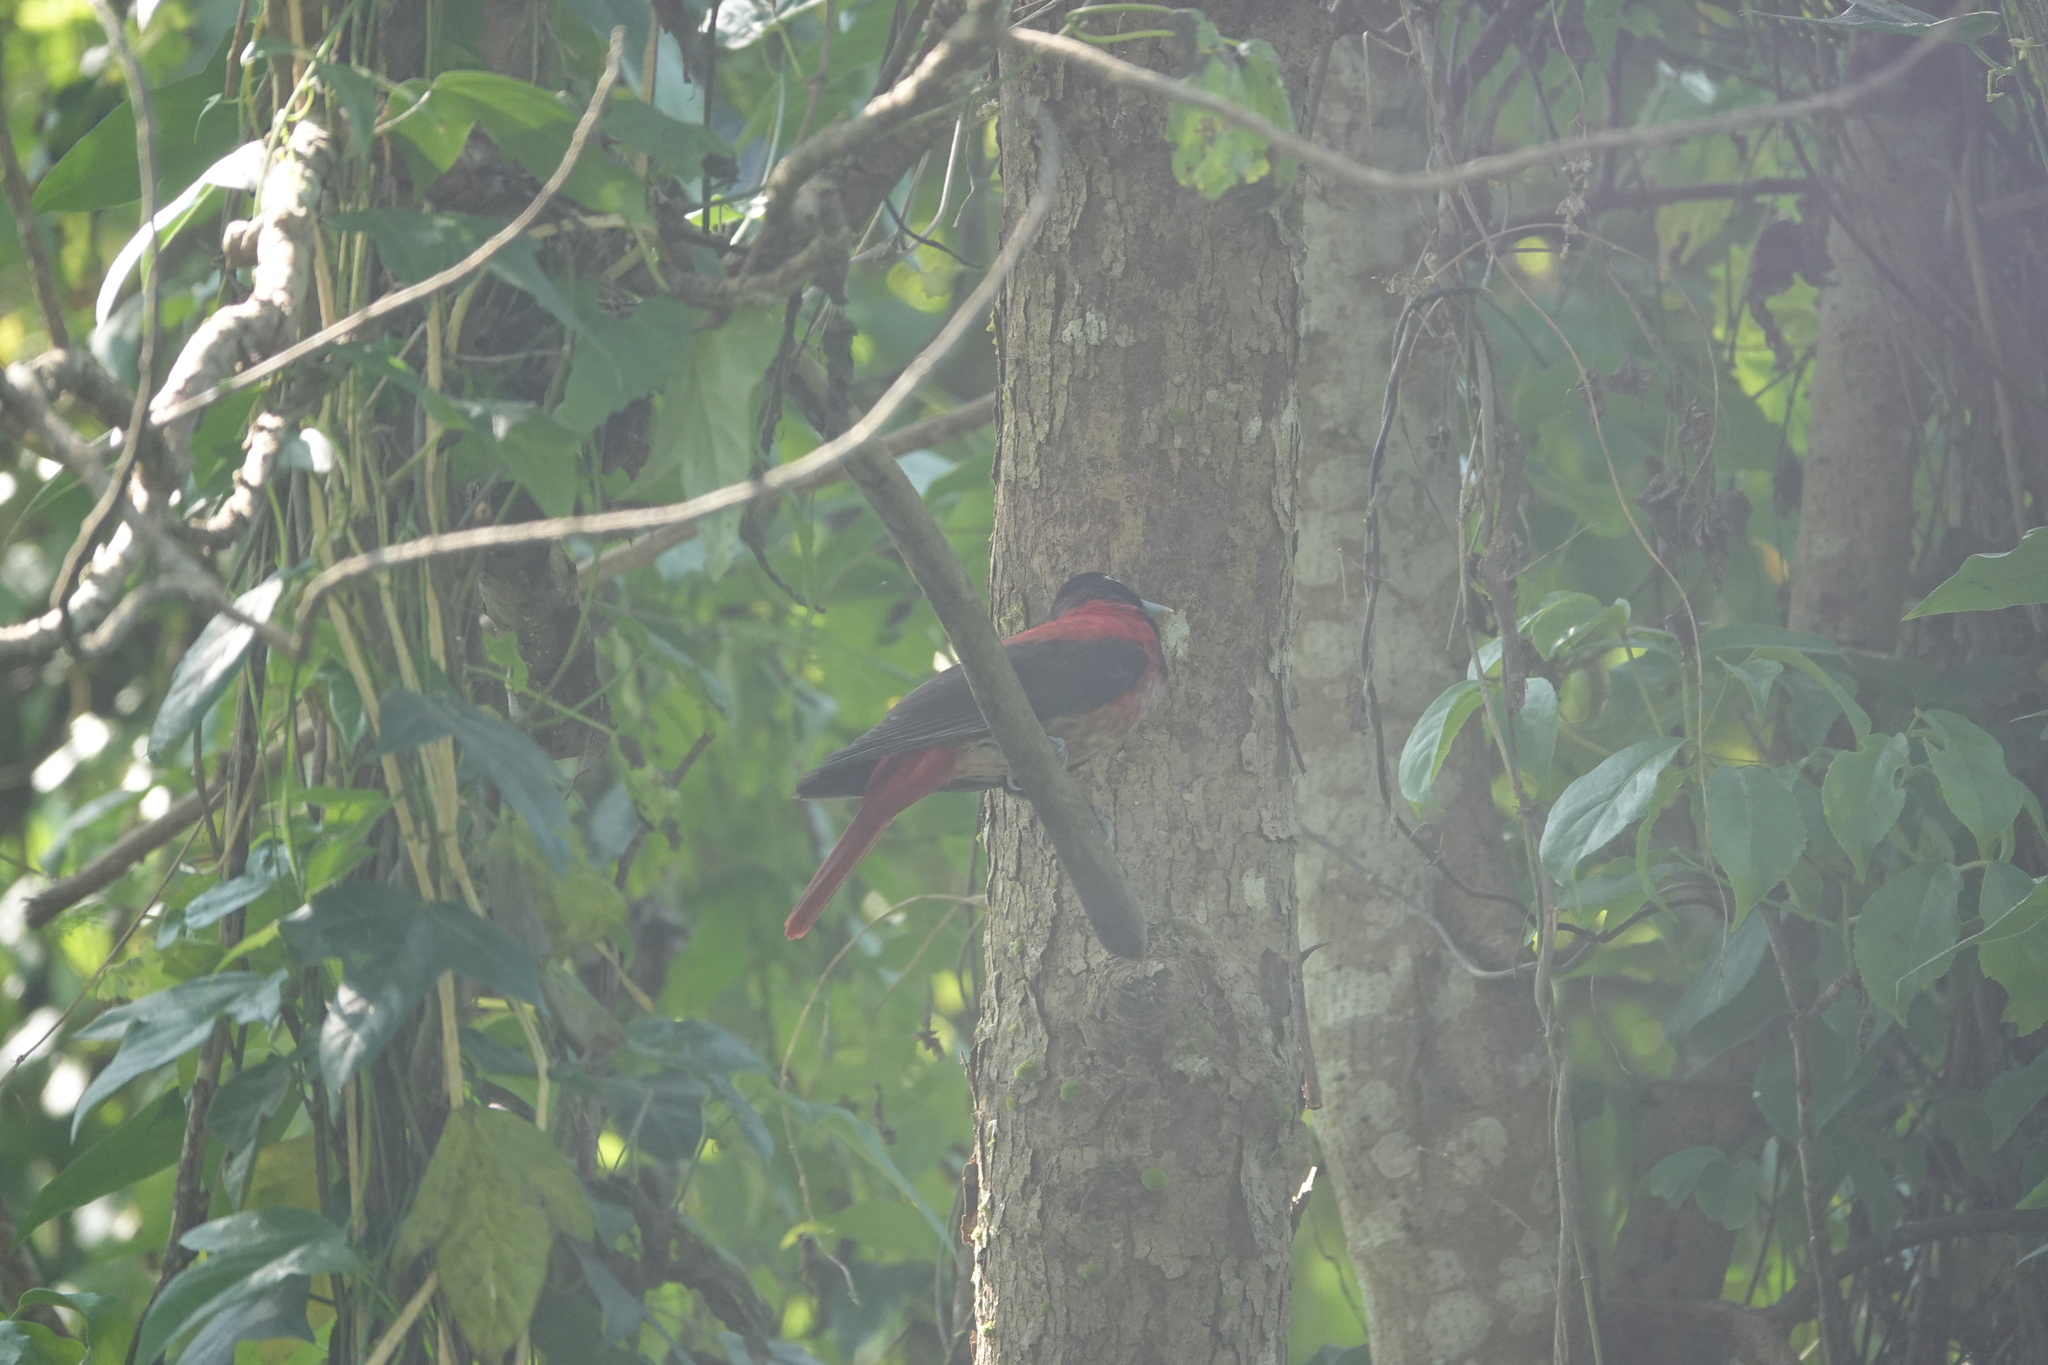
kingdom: Animalia
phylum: Chordata
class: Aves
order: Passeriformes
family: Oriolidae
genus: Oriolus
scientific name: Oriolus traillii
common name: Maroon oriole
